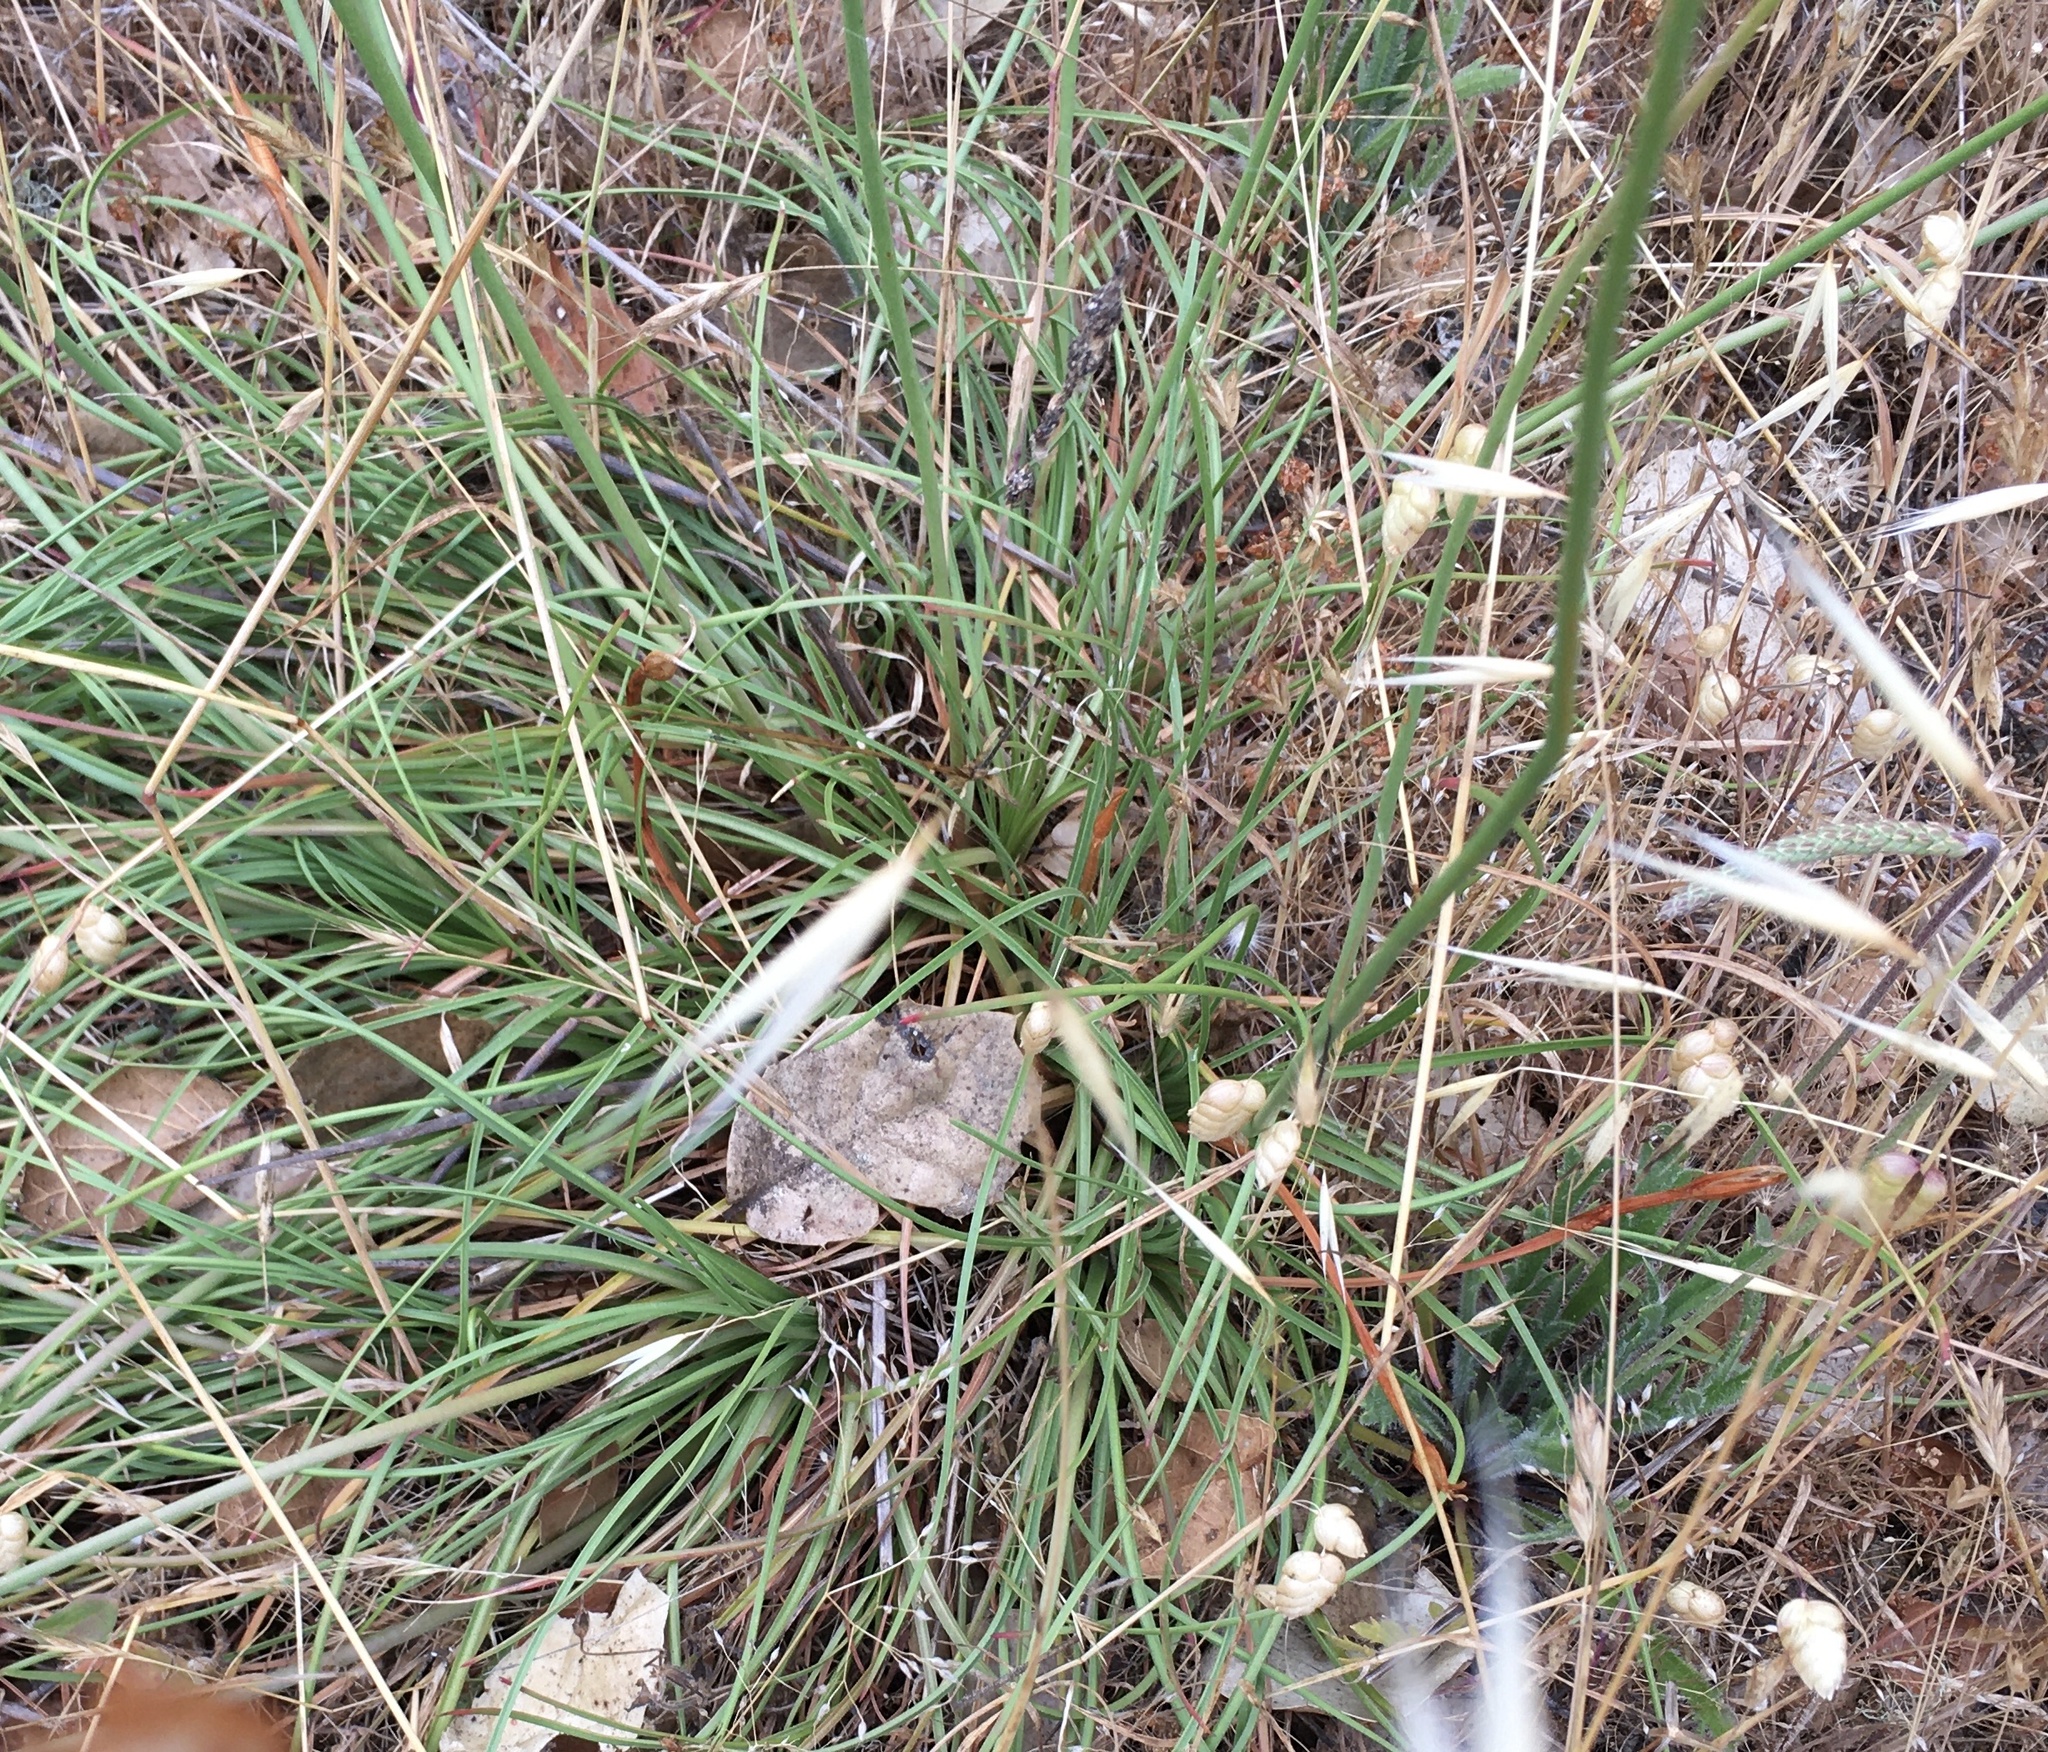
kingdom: Plantae
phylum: Tracheophyta
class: Magnoliopsida
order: Caryophyllales
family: Plumbaginaceae
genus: Armeria
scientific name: Armeria maritima
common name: Thrift
